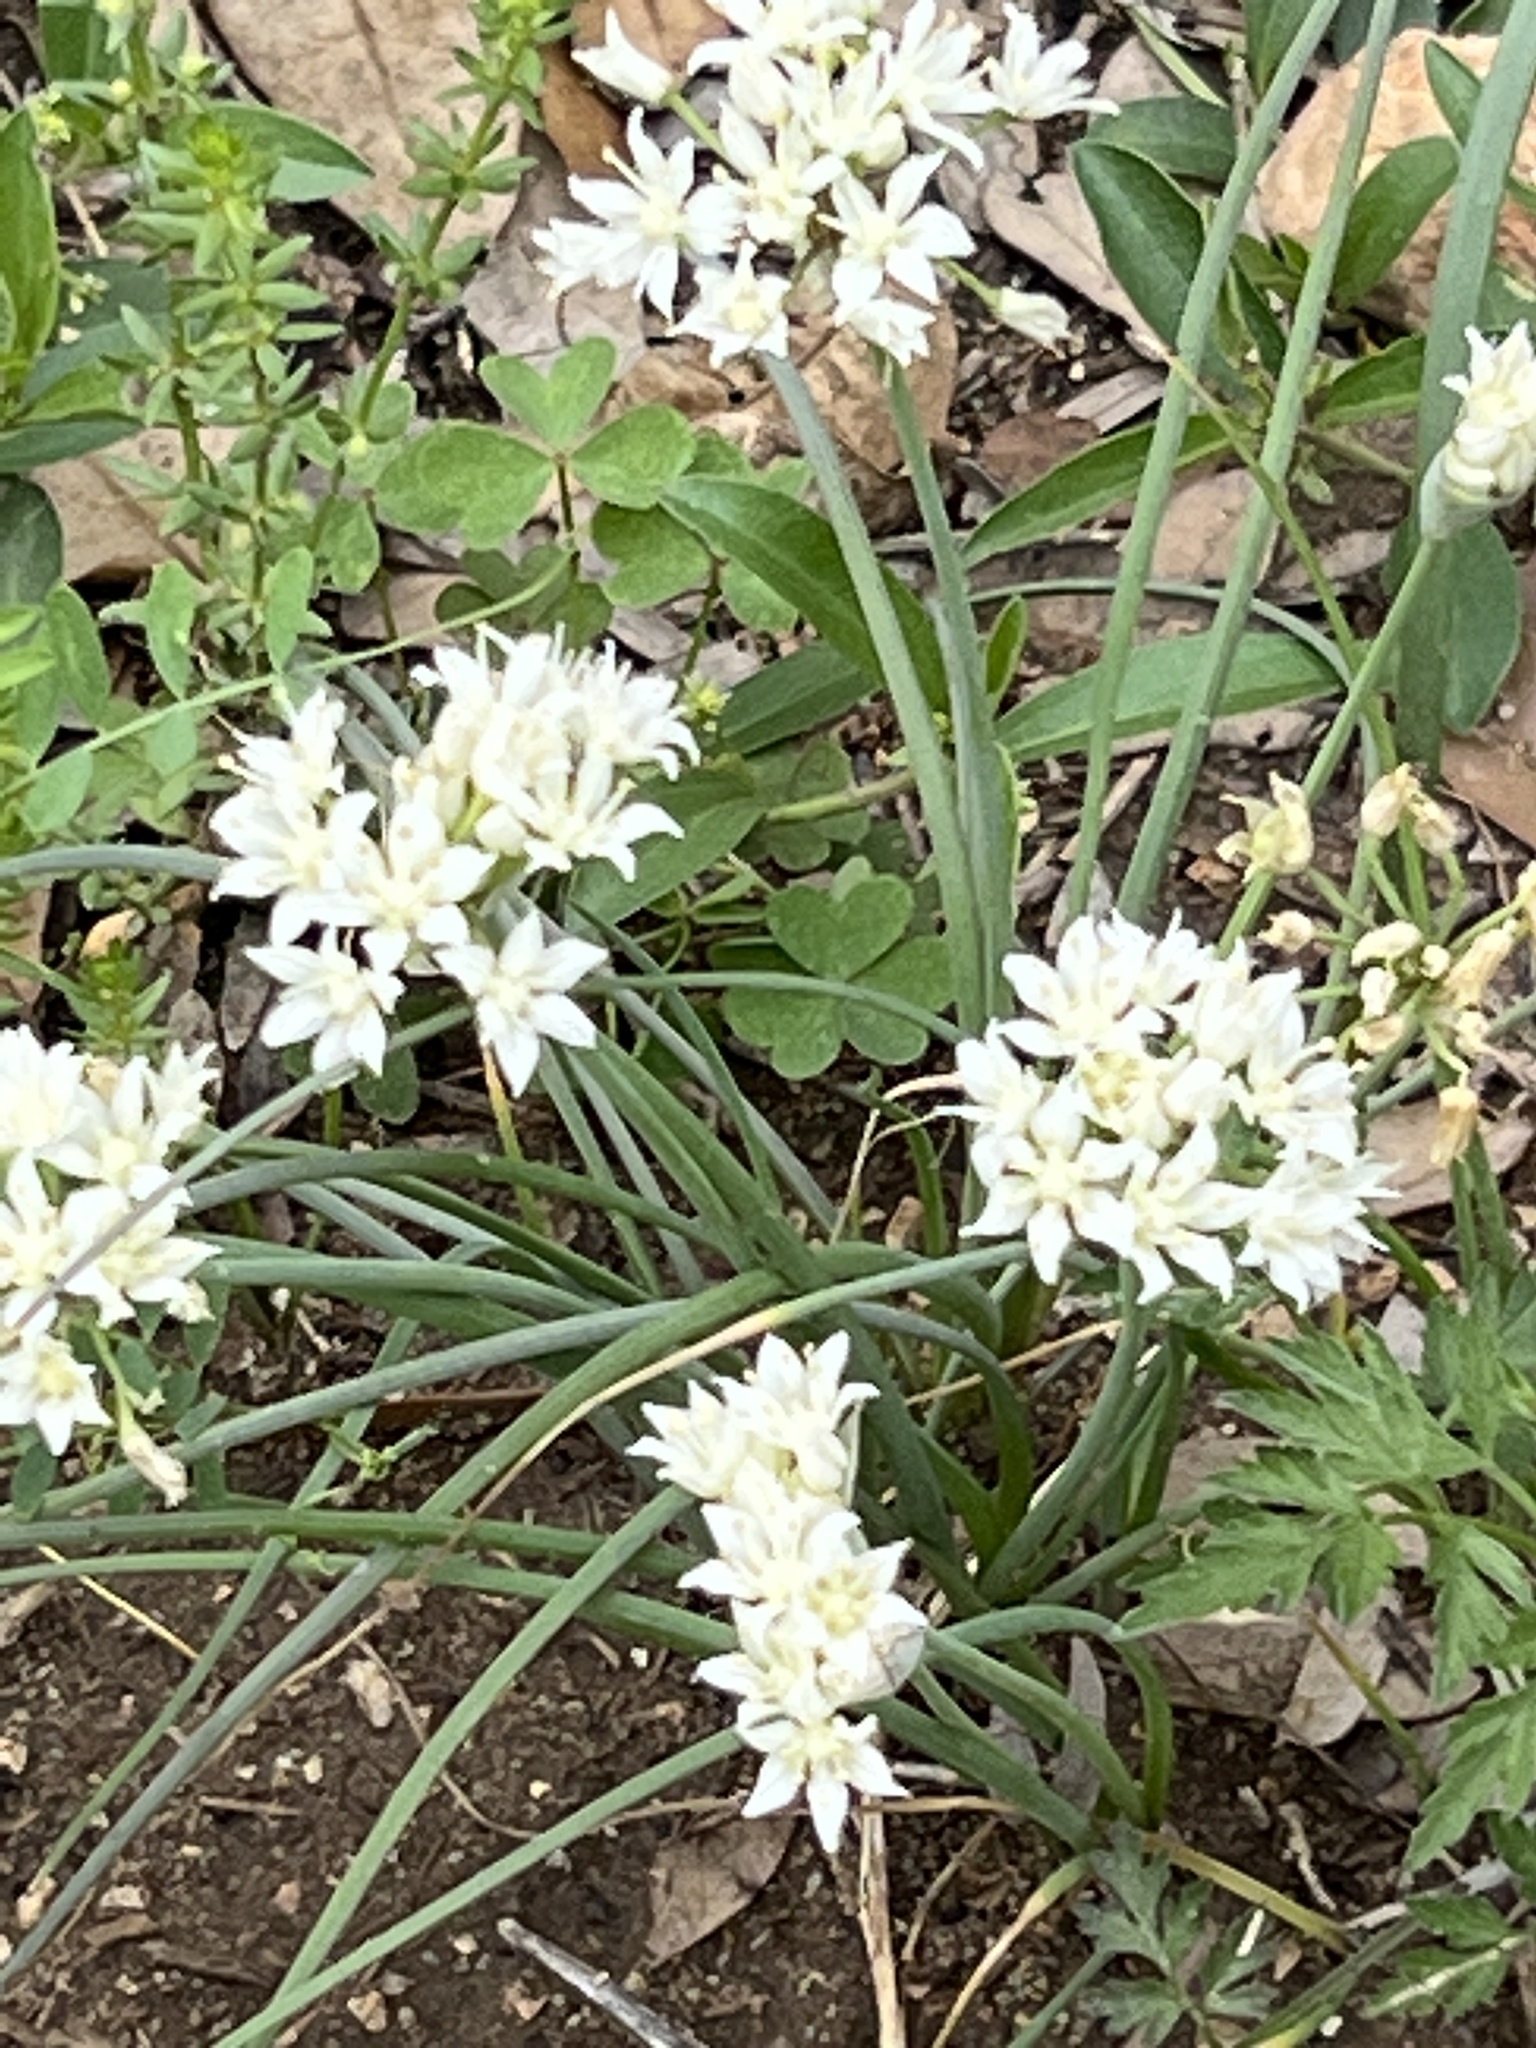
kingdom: Plantae
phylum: Tracheophyta
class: Liliopsida
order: Asparagales
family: Amaryllidaceae
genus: Allium
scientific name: Allium drummondii
